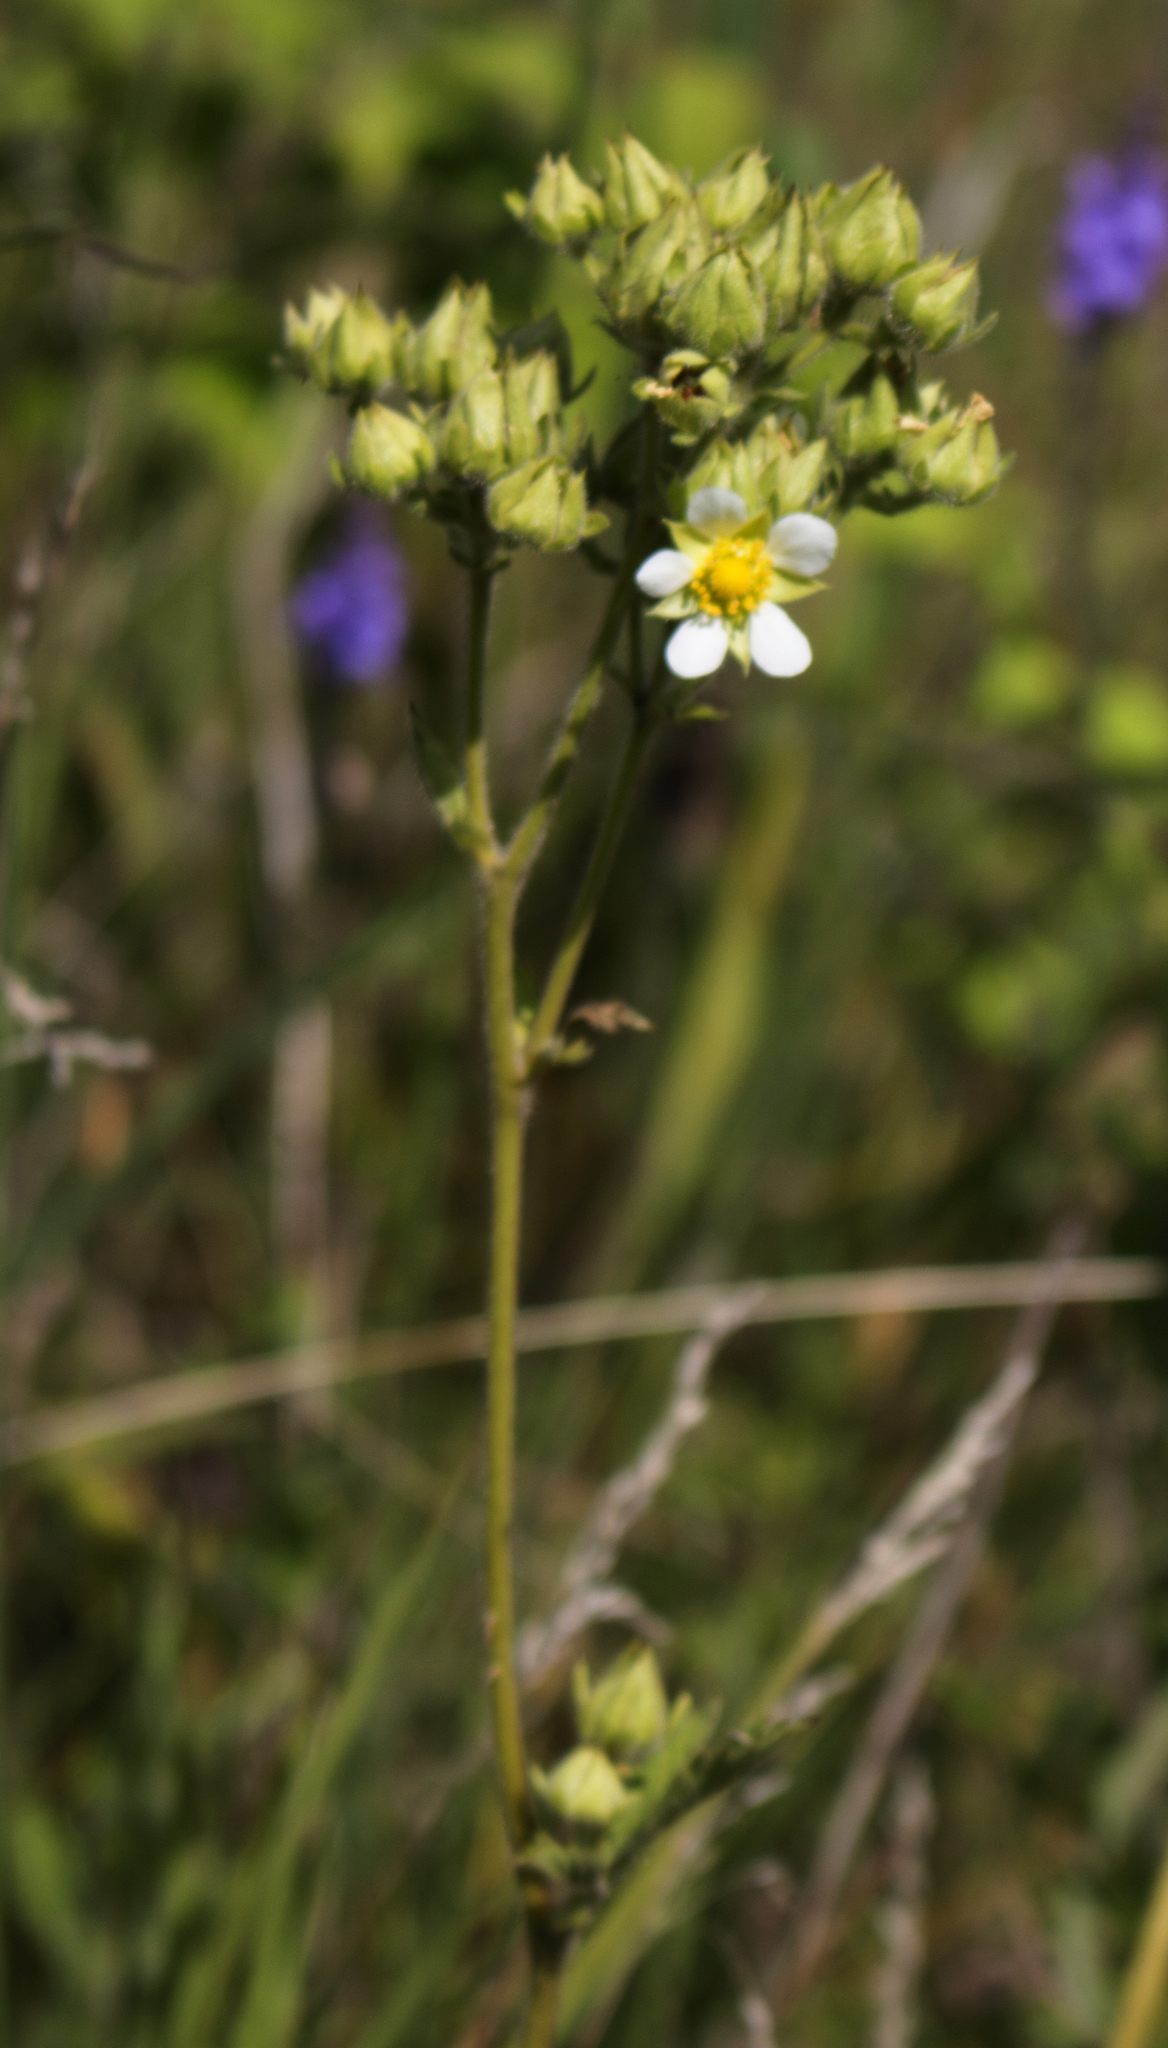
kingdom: Plantae
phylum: Tracheophyta
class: Magnoliopsida
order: Rosales
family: Rosaceae
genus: Drymocallis
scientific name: Drymocallis arguta
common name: Tall cinquefoil
